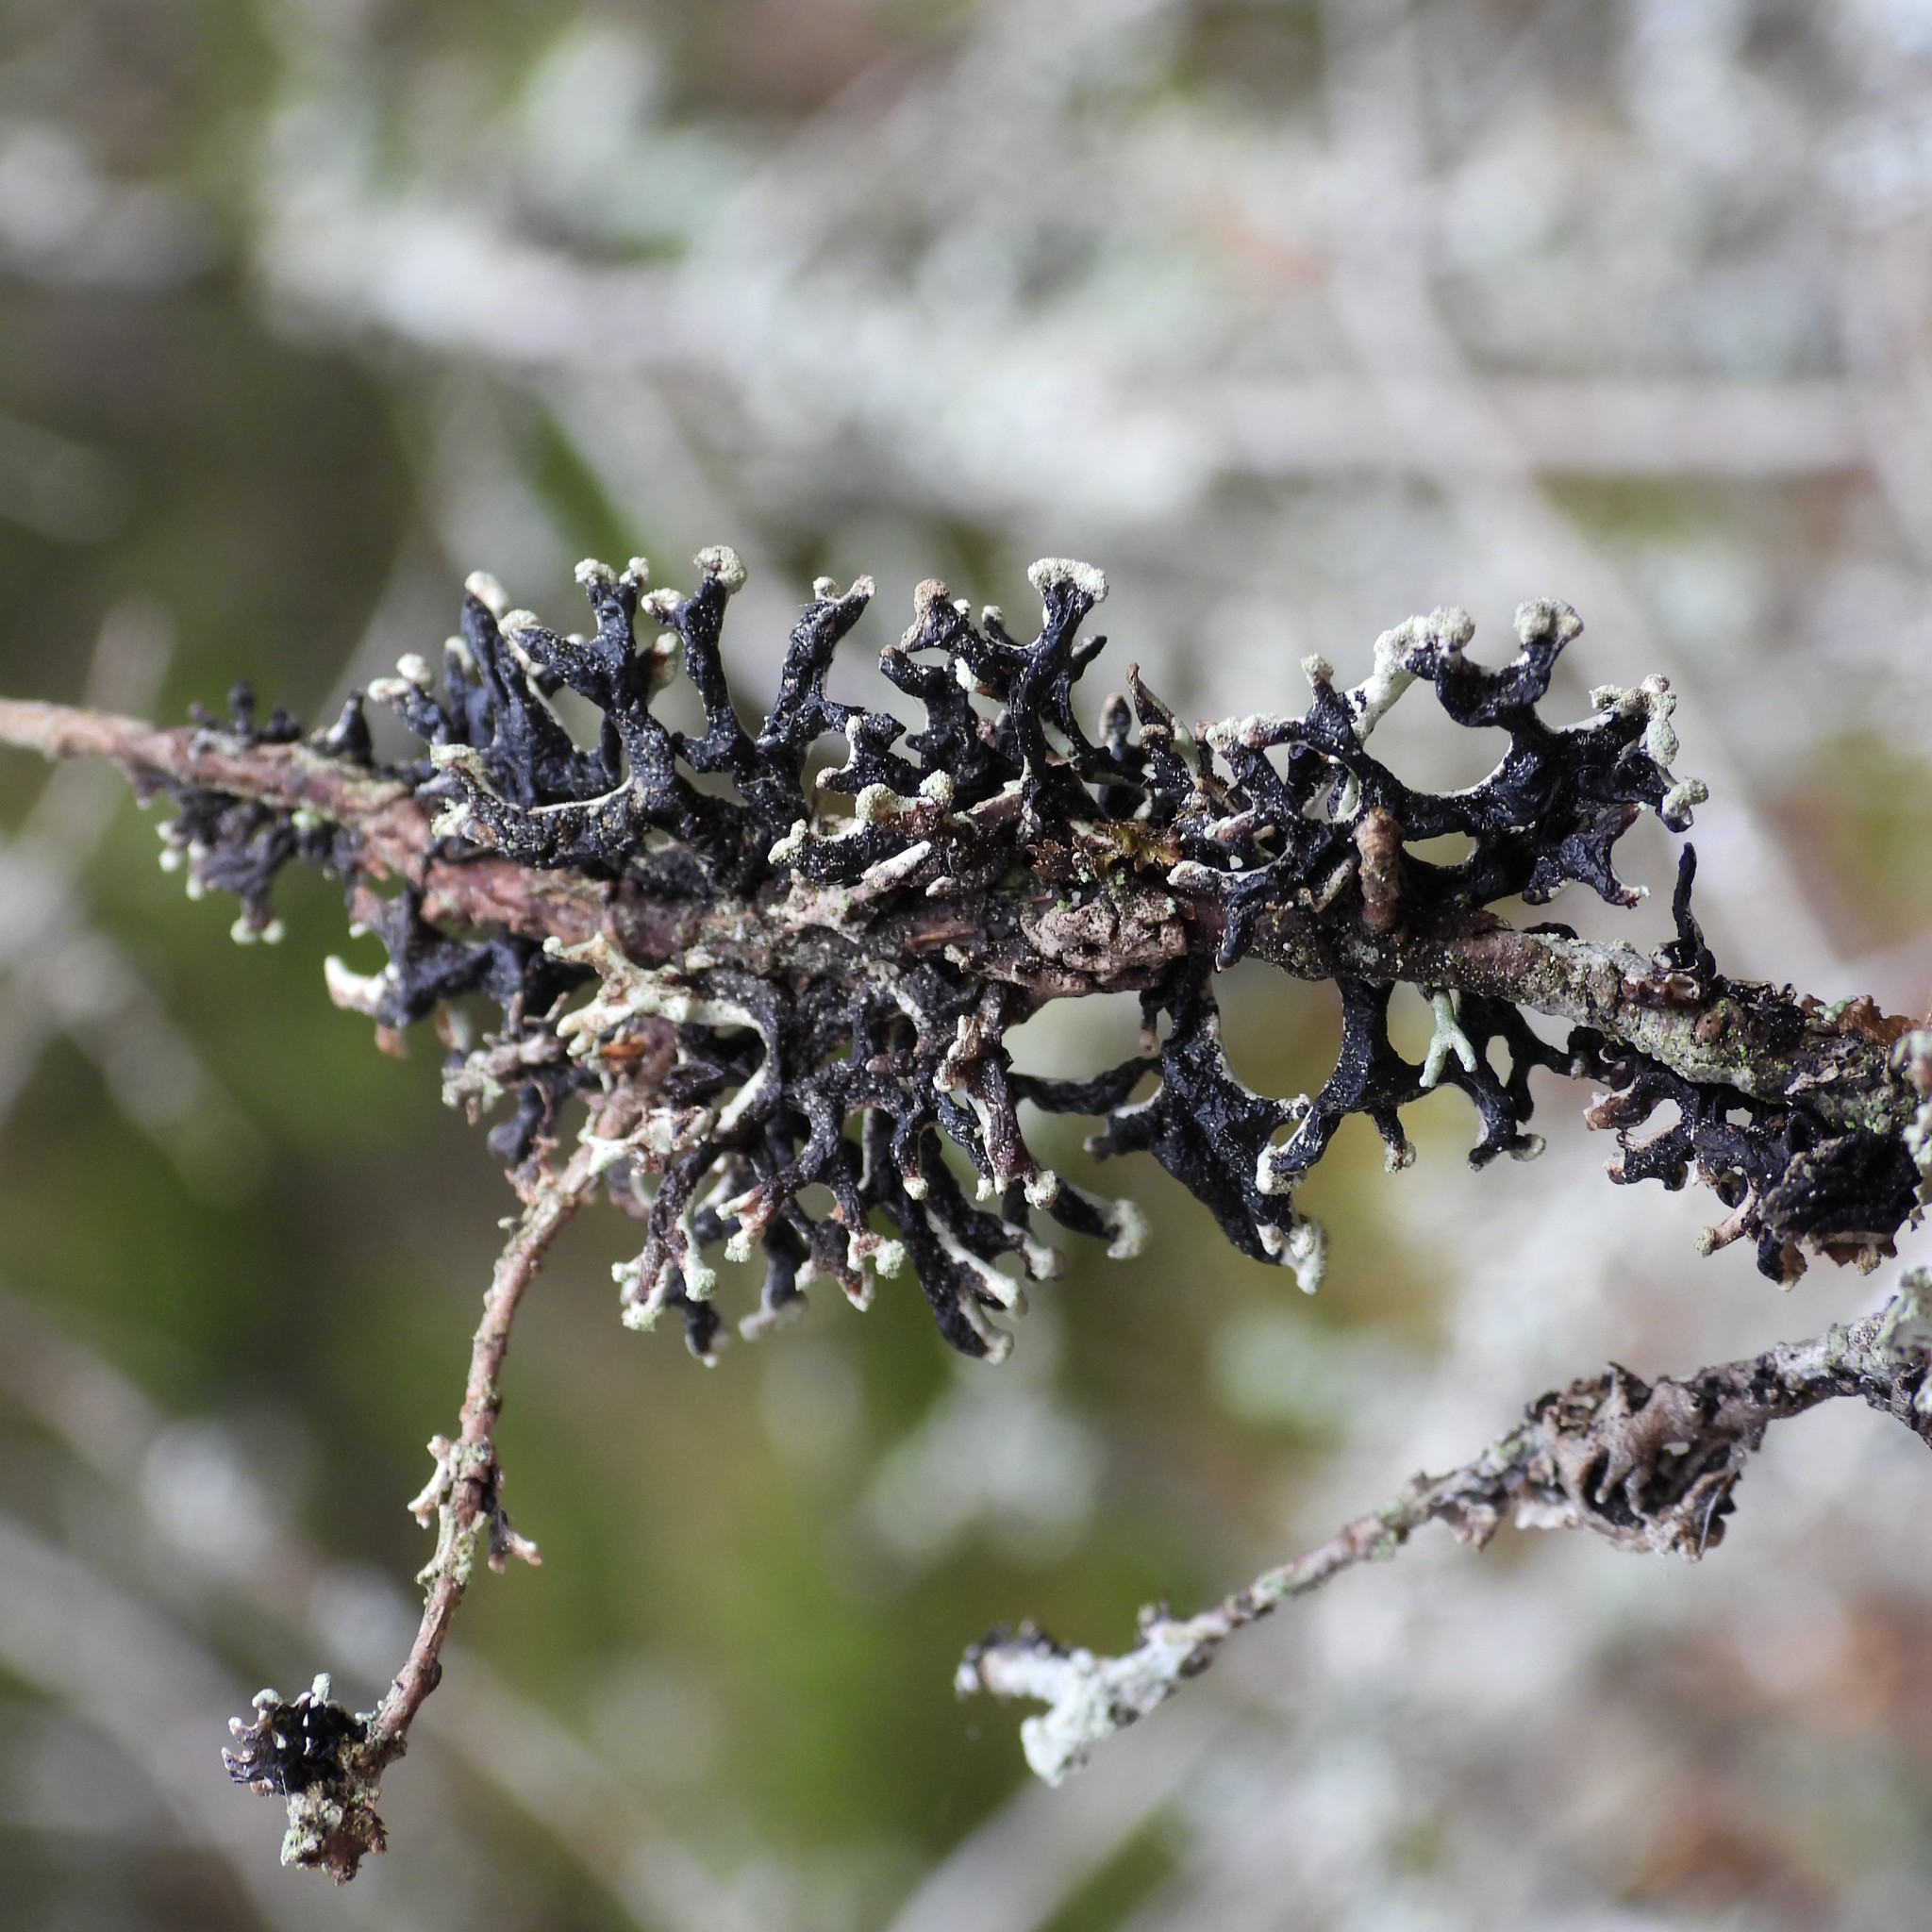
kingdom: Fungi
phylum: Ascomycota
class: Lecanoromycetes
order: Lecanorales
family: Parmeliaceae
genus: Hypogymnia
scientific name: Hypogymnia tubulosa
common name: Powder-headed tube lichen
